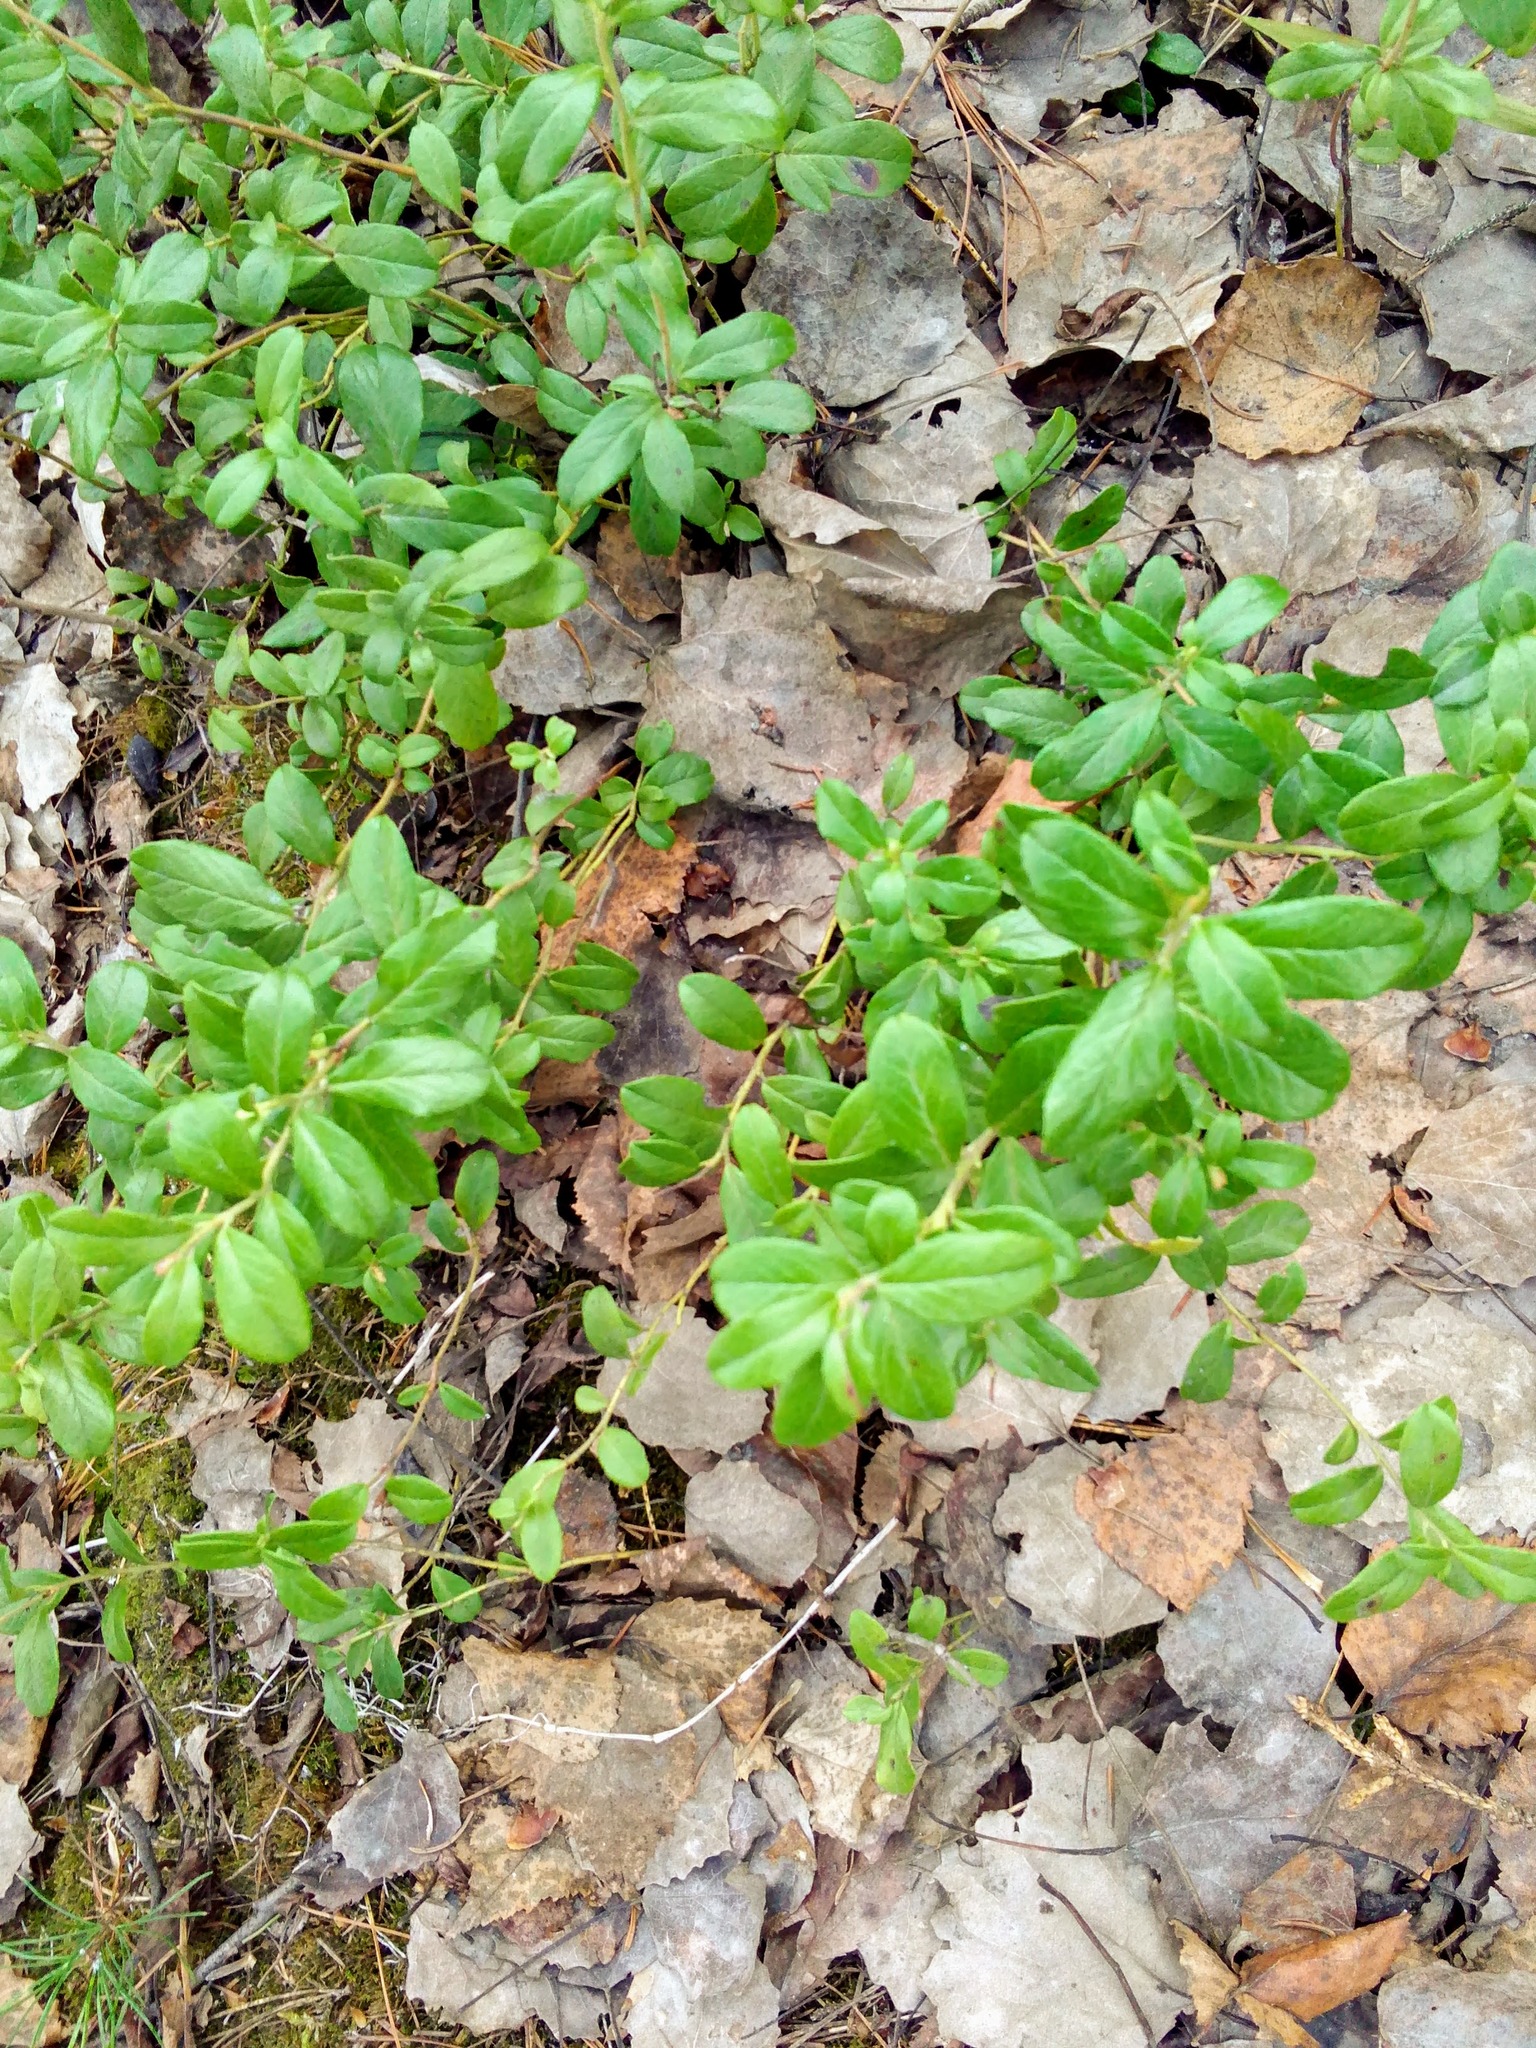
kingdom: Plantae
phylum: Tracheophyta
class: Magnoliopsida
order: Ericales
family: Ericaceae
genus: Vaccinium
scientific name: Vaccinium vitis-idaea
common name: Cowberry
